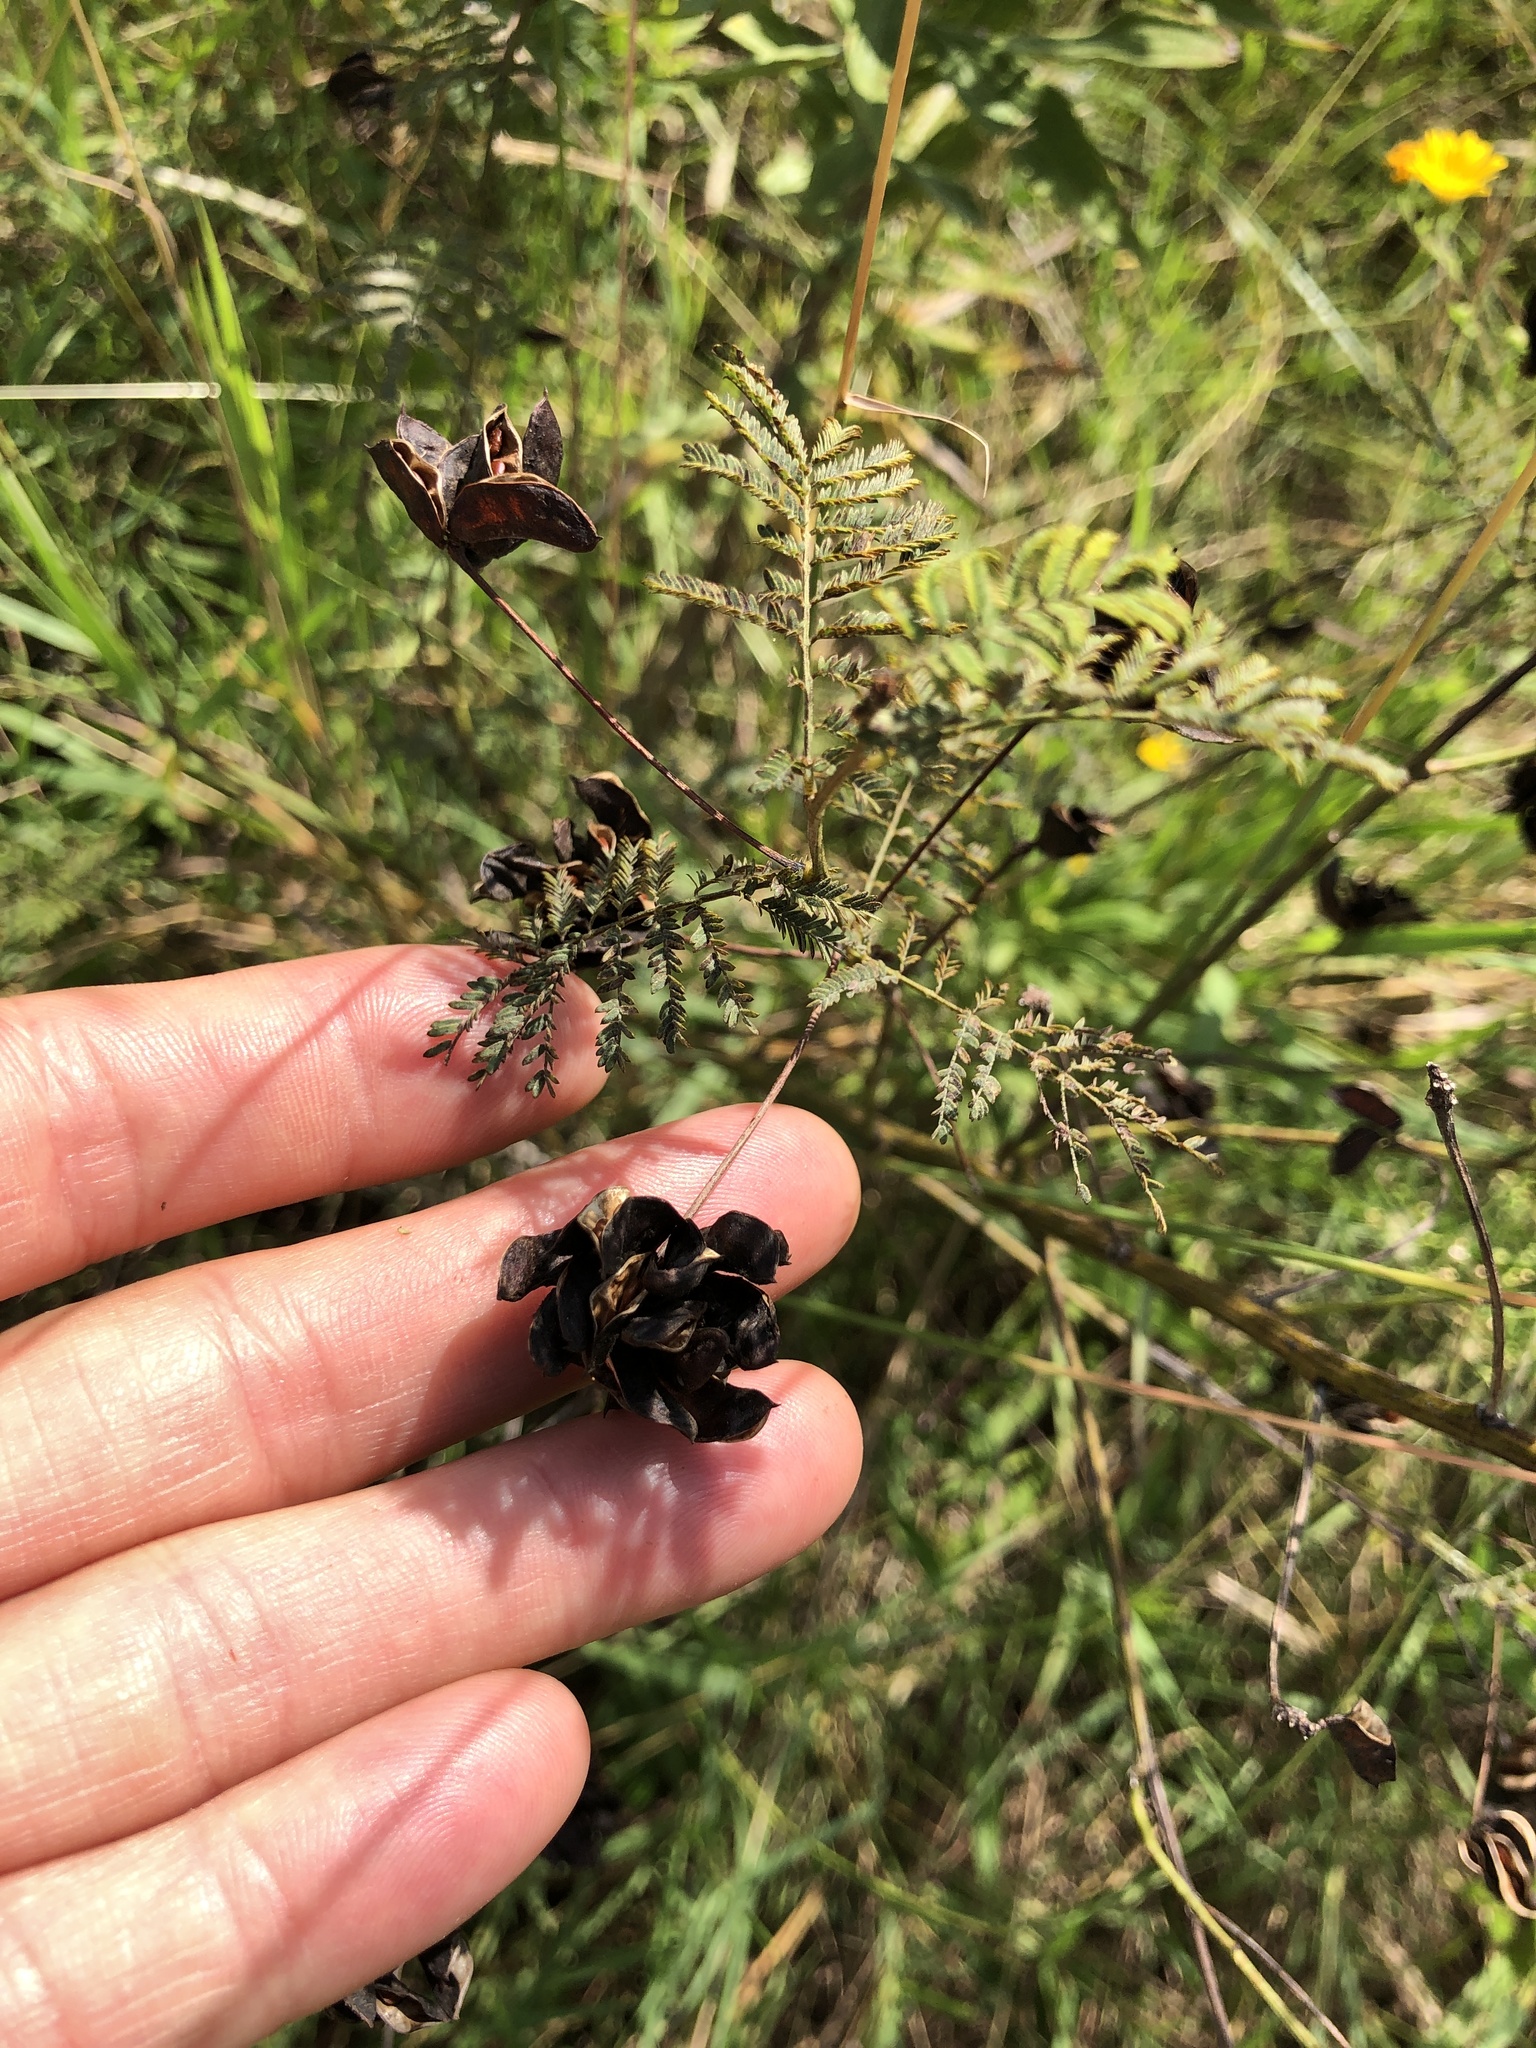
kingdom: Plantae
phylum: Tracheophyta
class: Magnoliopsida
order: Fabales
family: Fabaceae
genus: Desmanthus
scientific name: Desmanthus illinoensis
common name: Illinois bundle-flower
